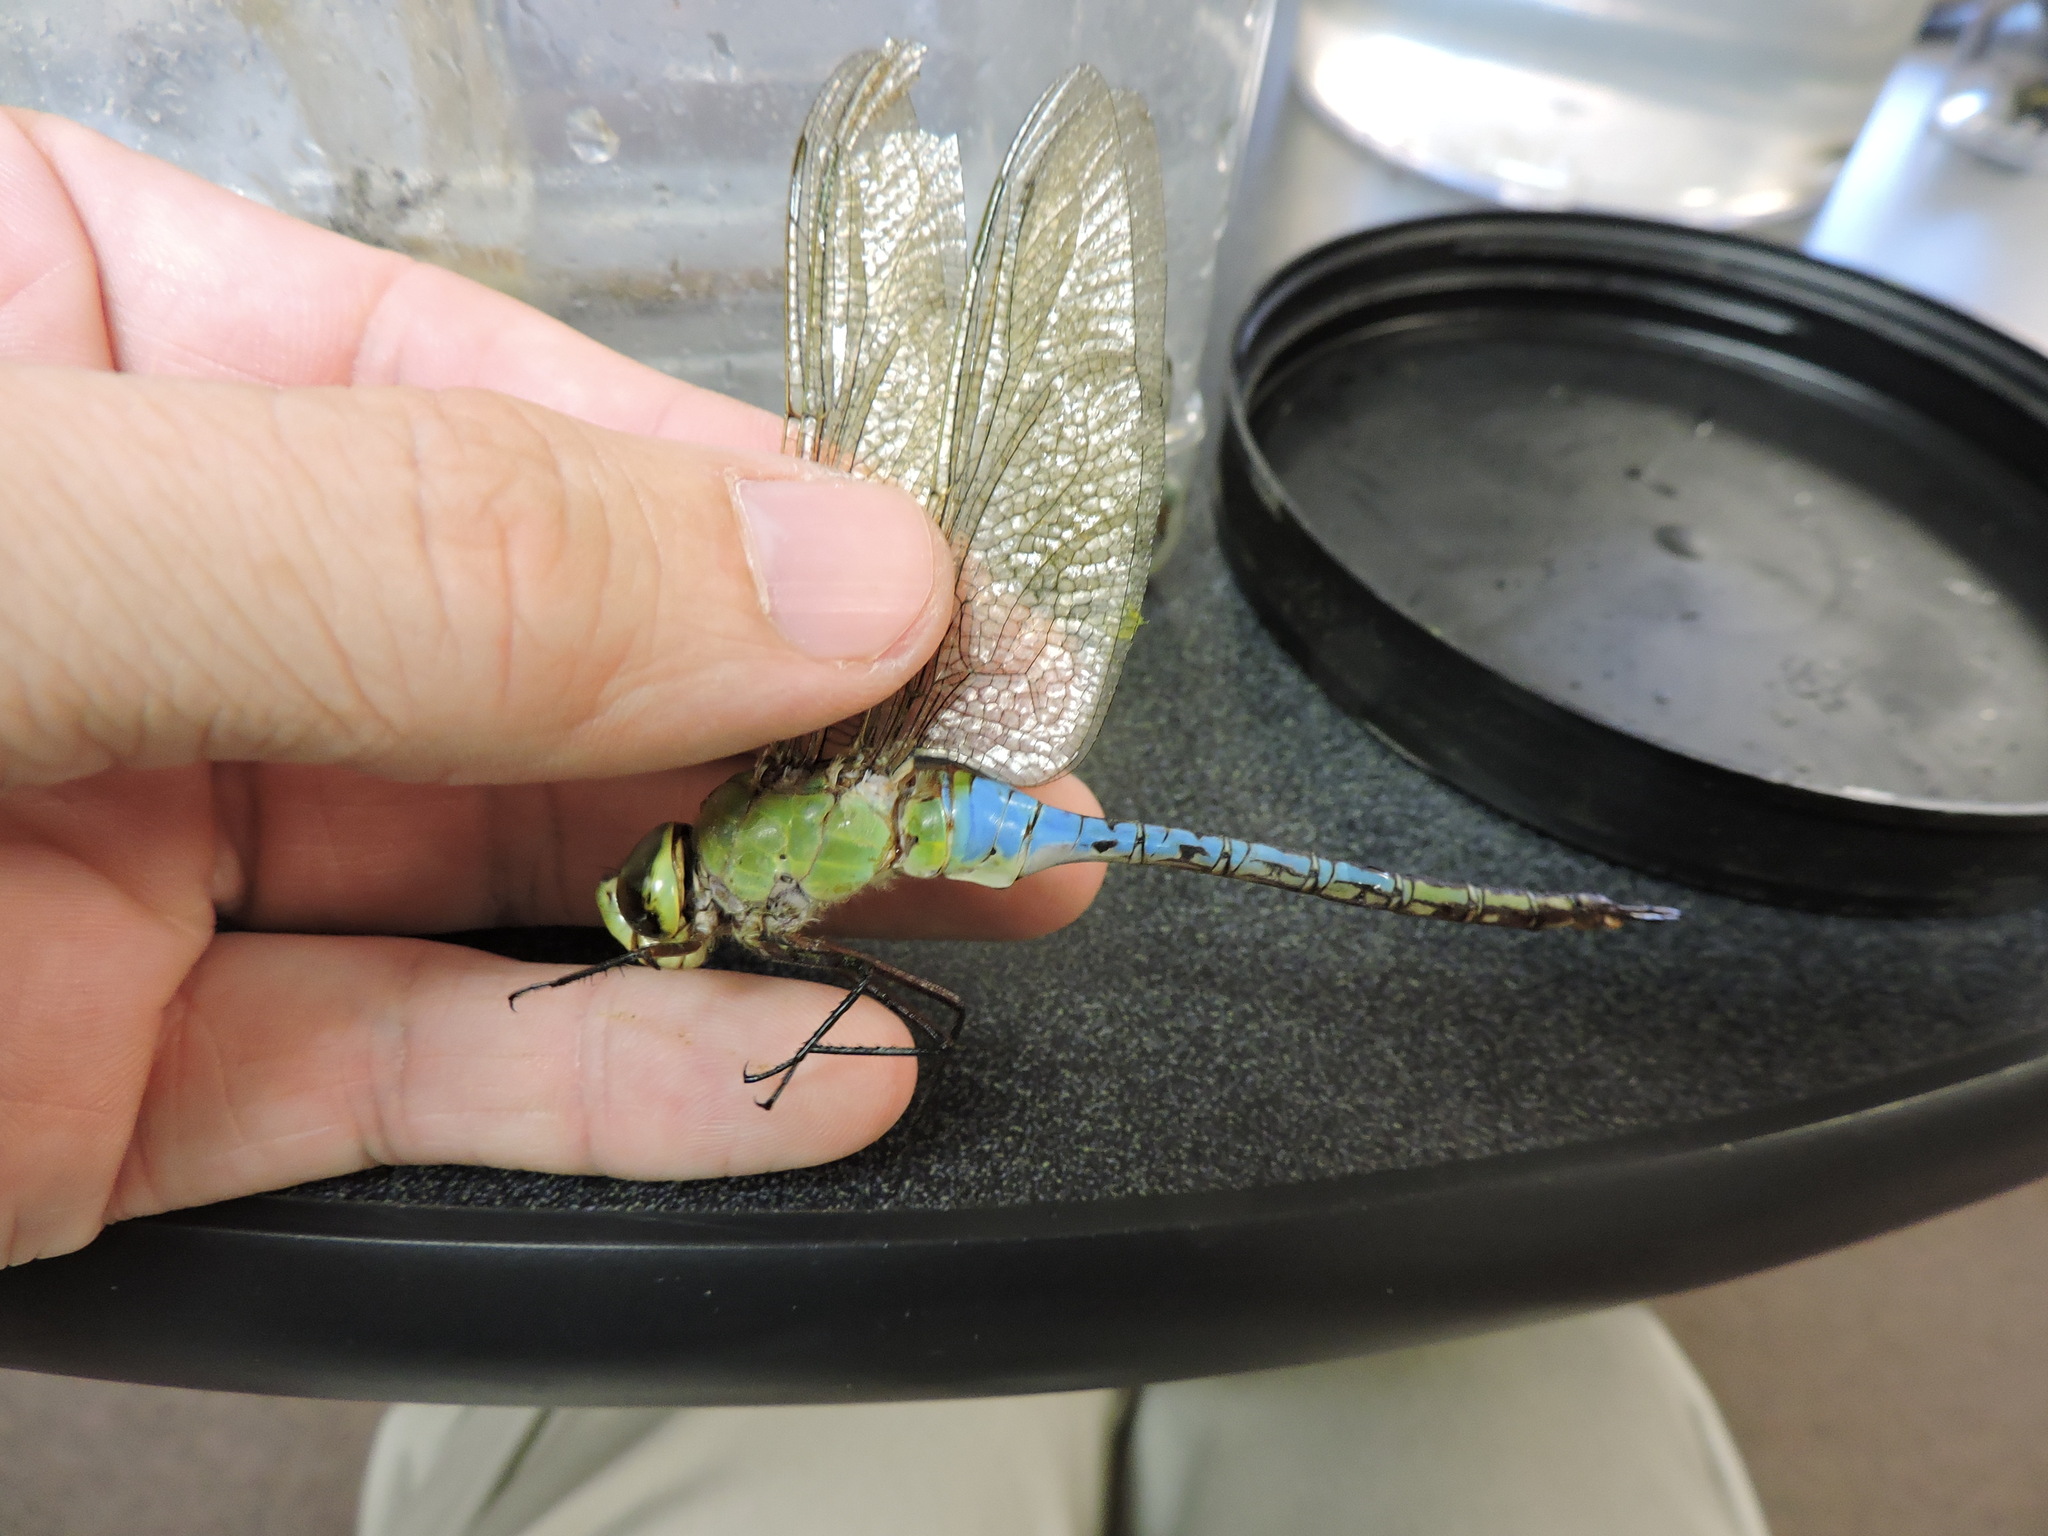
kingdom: Animalia
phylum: Arthropoda
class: Insecta
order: Odonata
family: Aeshnidae
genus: Anax
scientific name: Anax junius
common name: Common green darner
